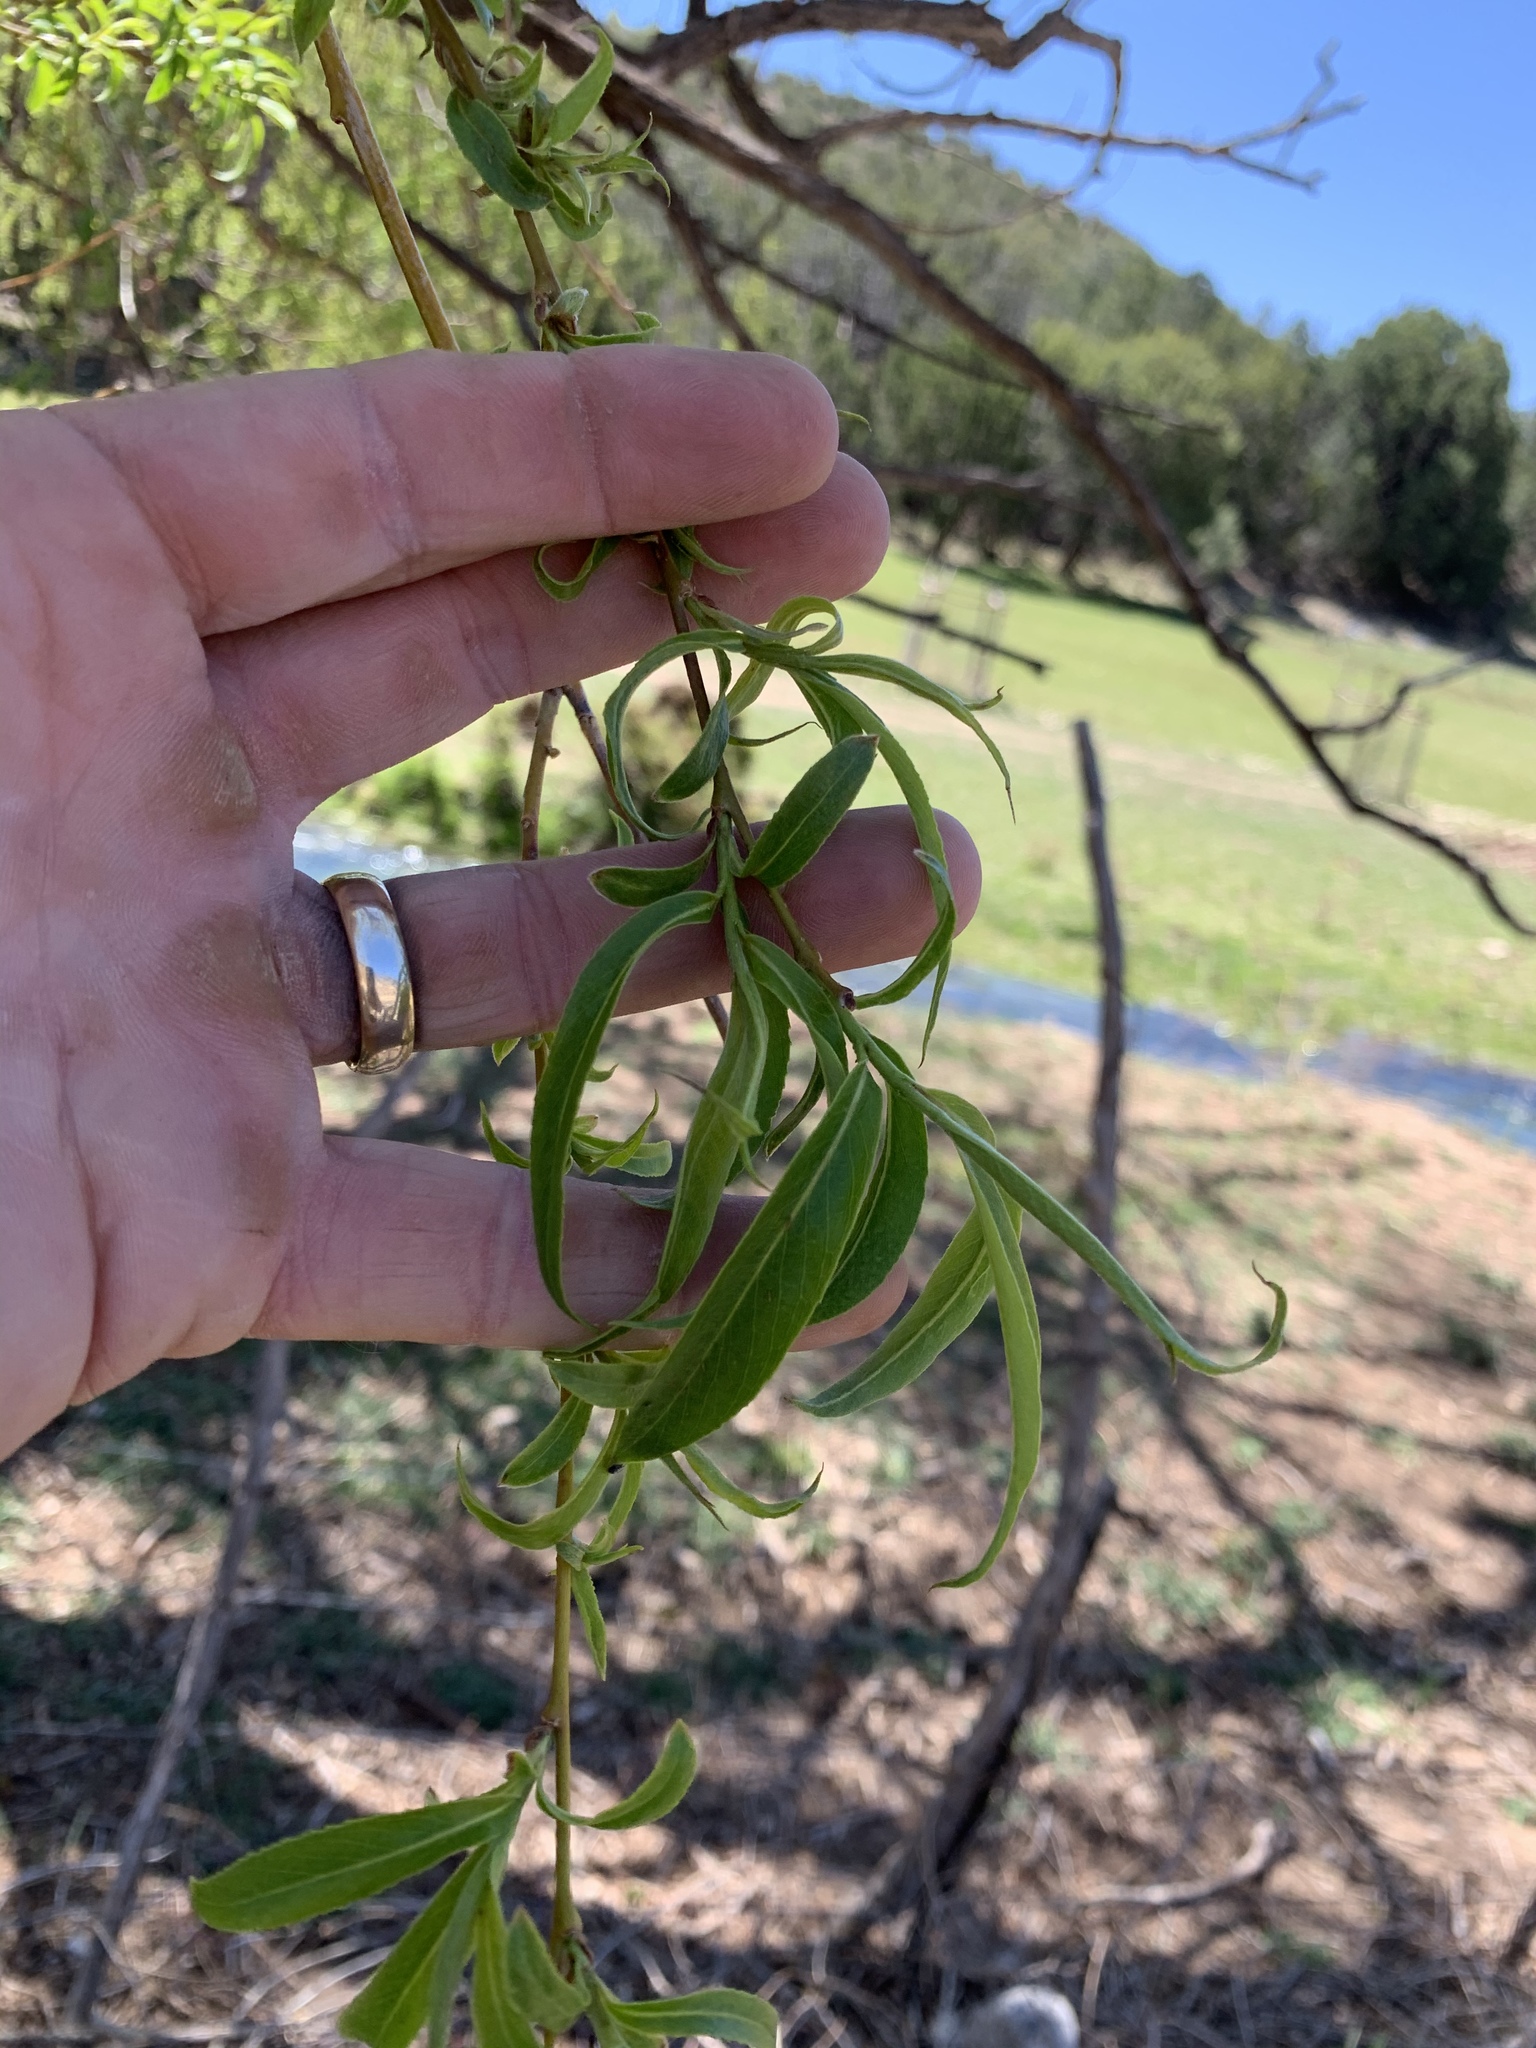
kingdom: Plantae
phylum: Tracheophyta
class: Magnoliopsida
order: Malpighiales
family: Salicaceae
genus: Salix
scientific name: Salix babylonica
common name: Weeping willow
